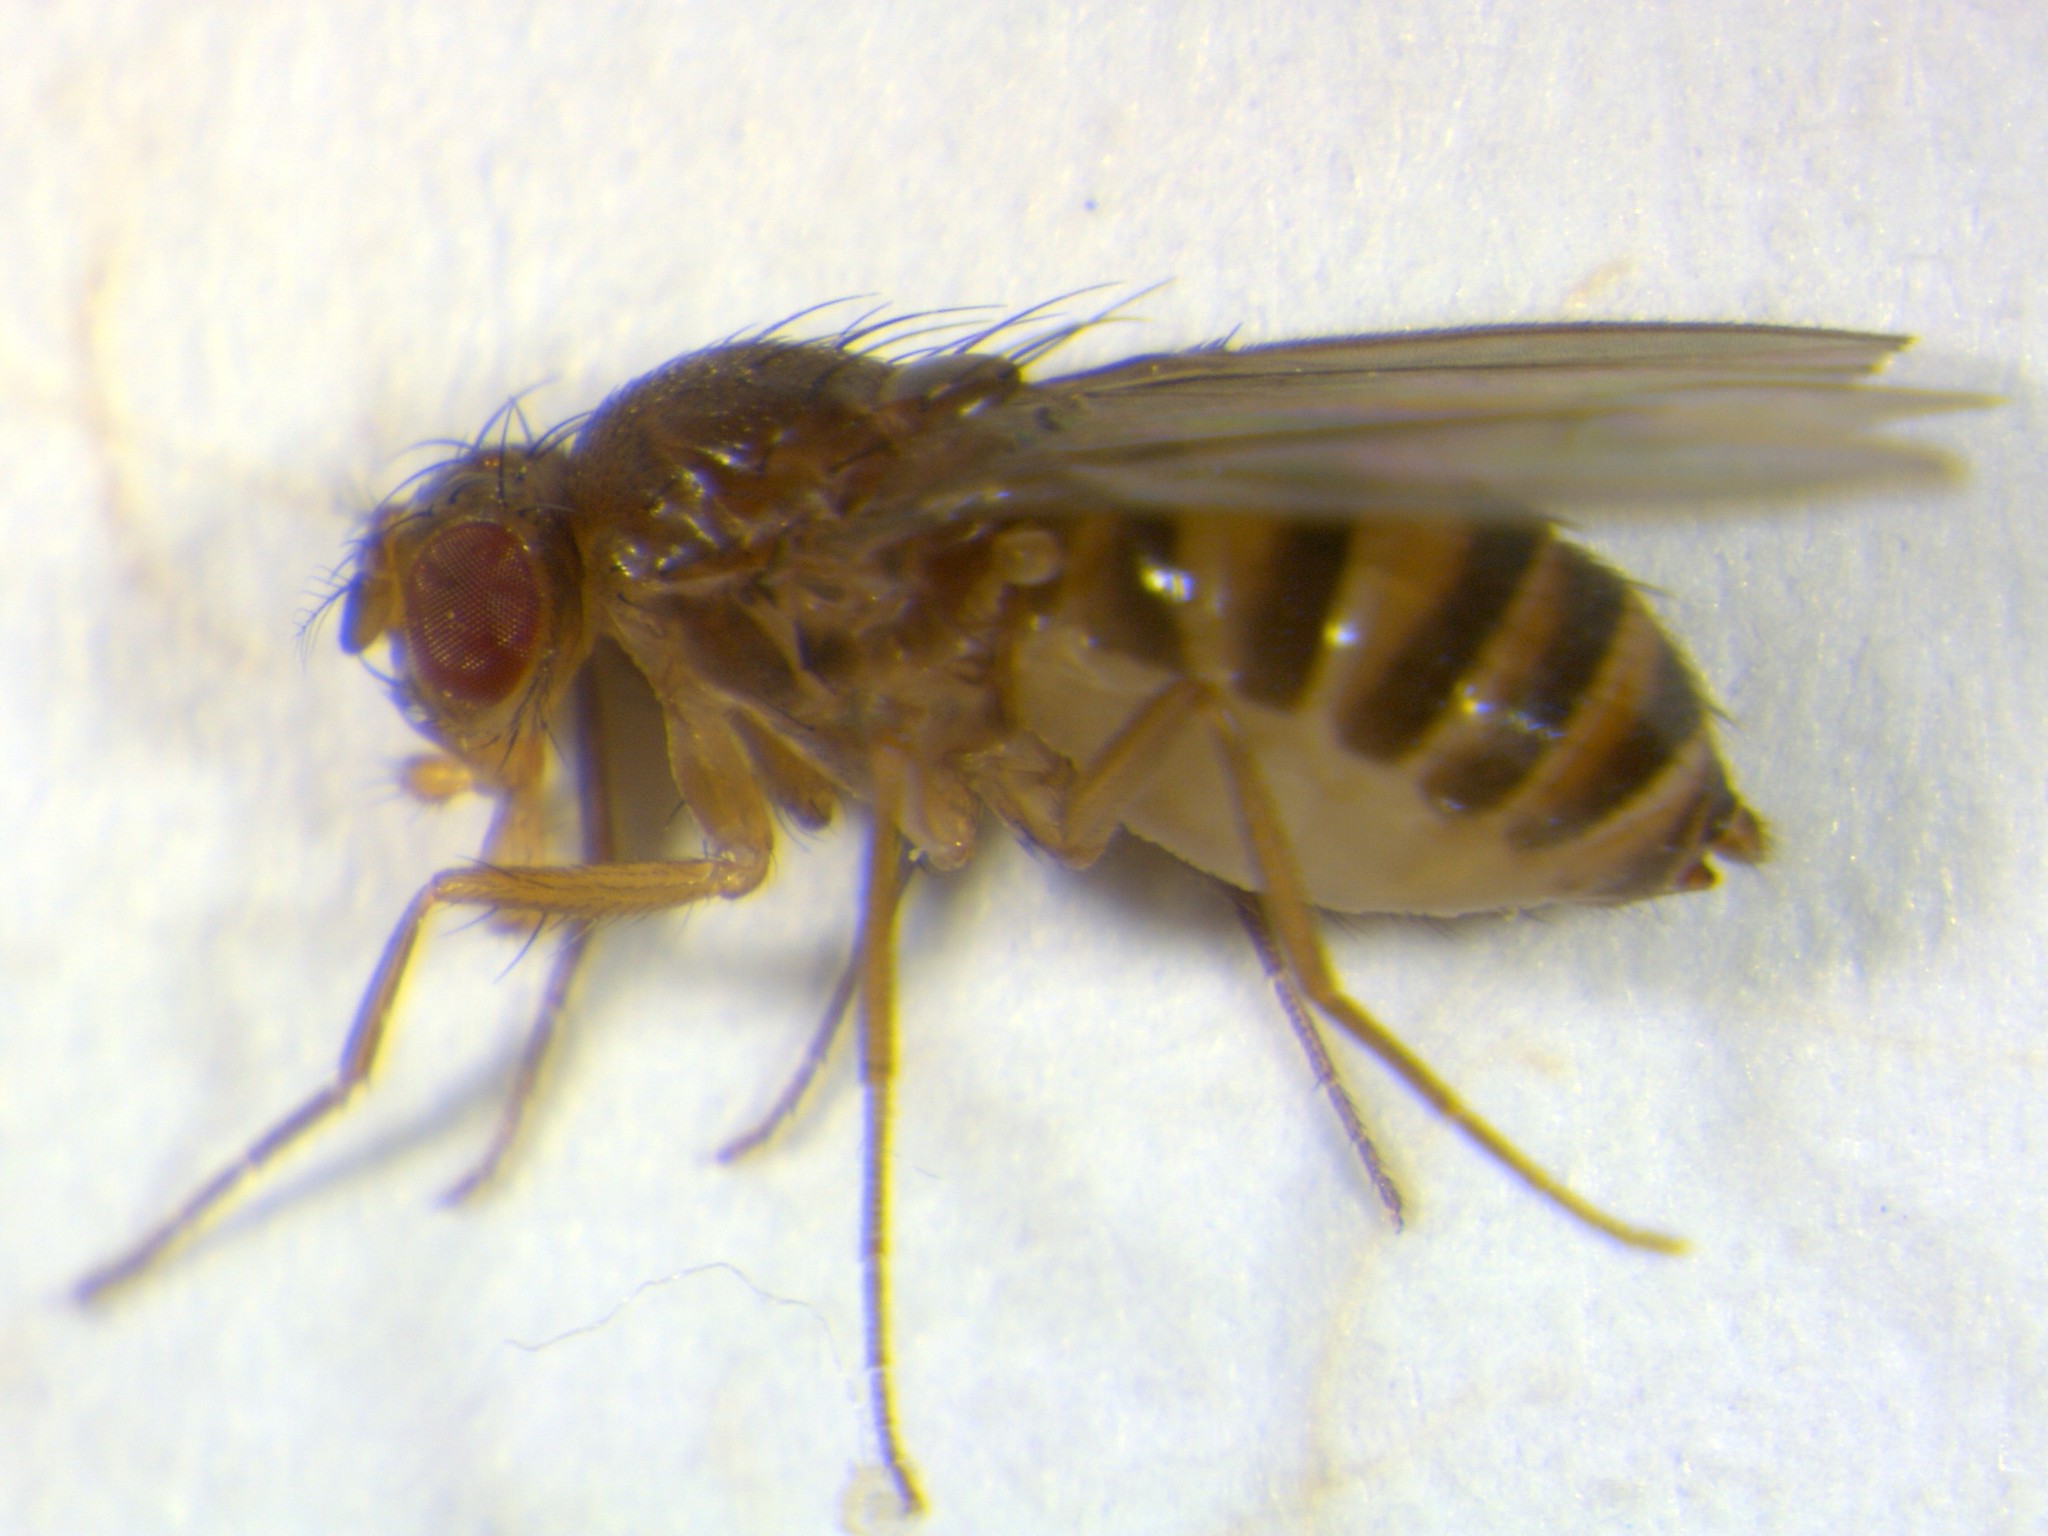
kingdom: Animalia
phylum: Arthropoda
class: Insecta
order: Diptera
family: Drosophilidae
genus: Drosophila
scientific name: Drosophila funebris
